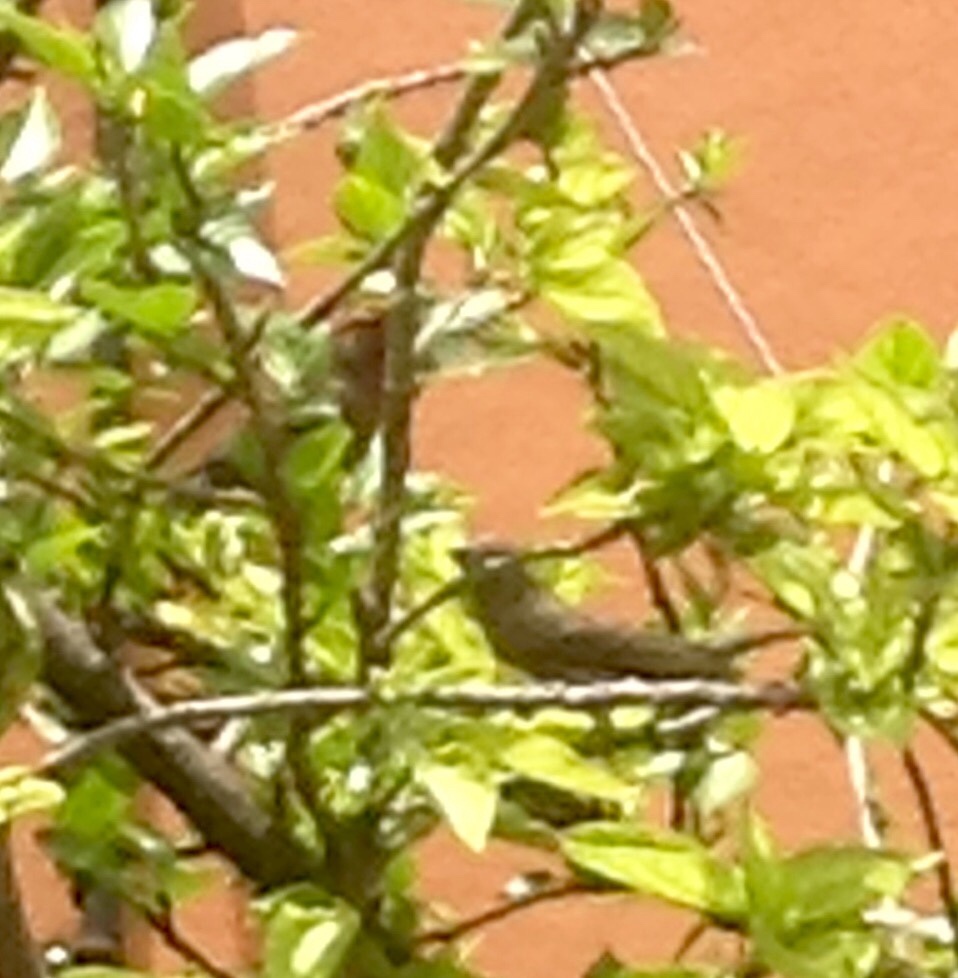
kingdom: Animalia
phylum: Chordata
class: Aves
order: Passeriformes
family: Fringillidae
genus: Haemorhous
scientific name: Haemorhous mexicanus
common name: House finch
